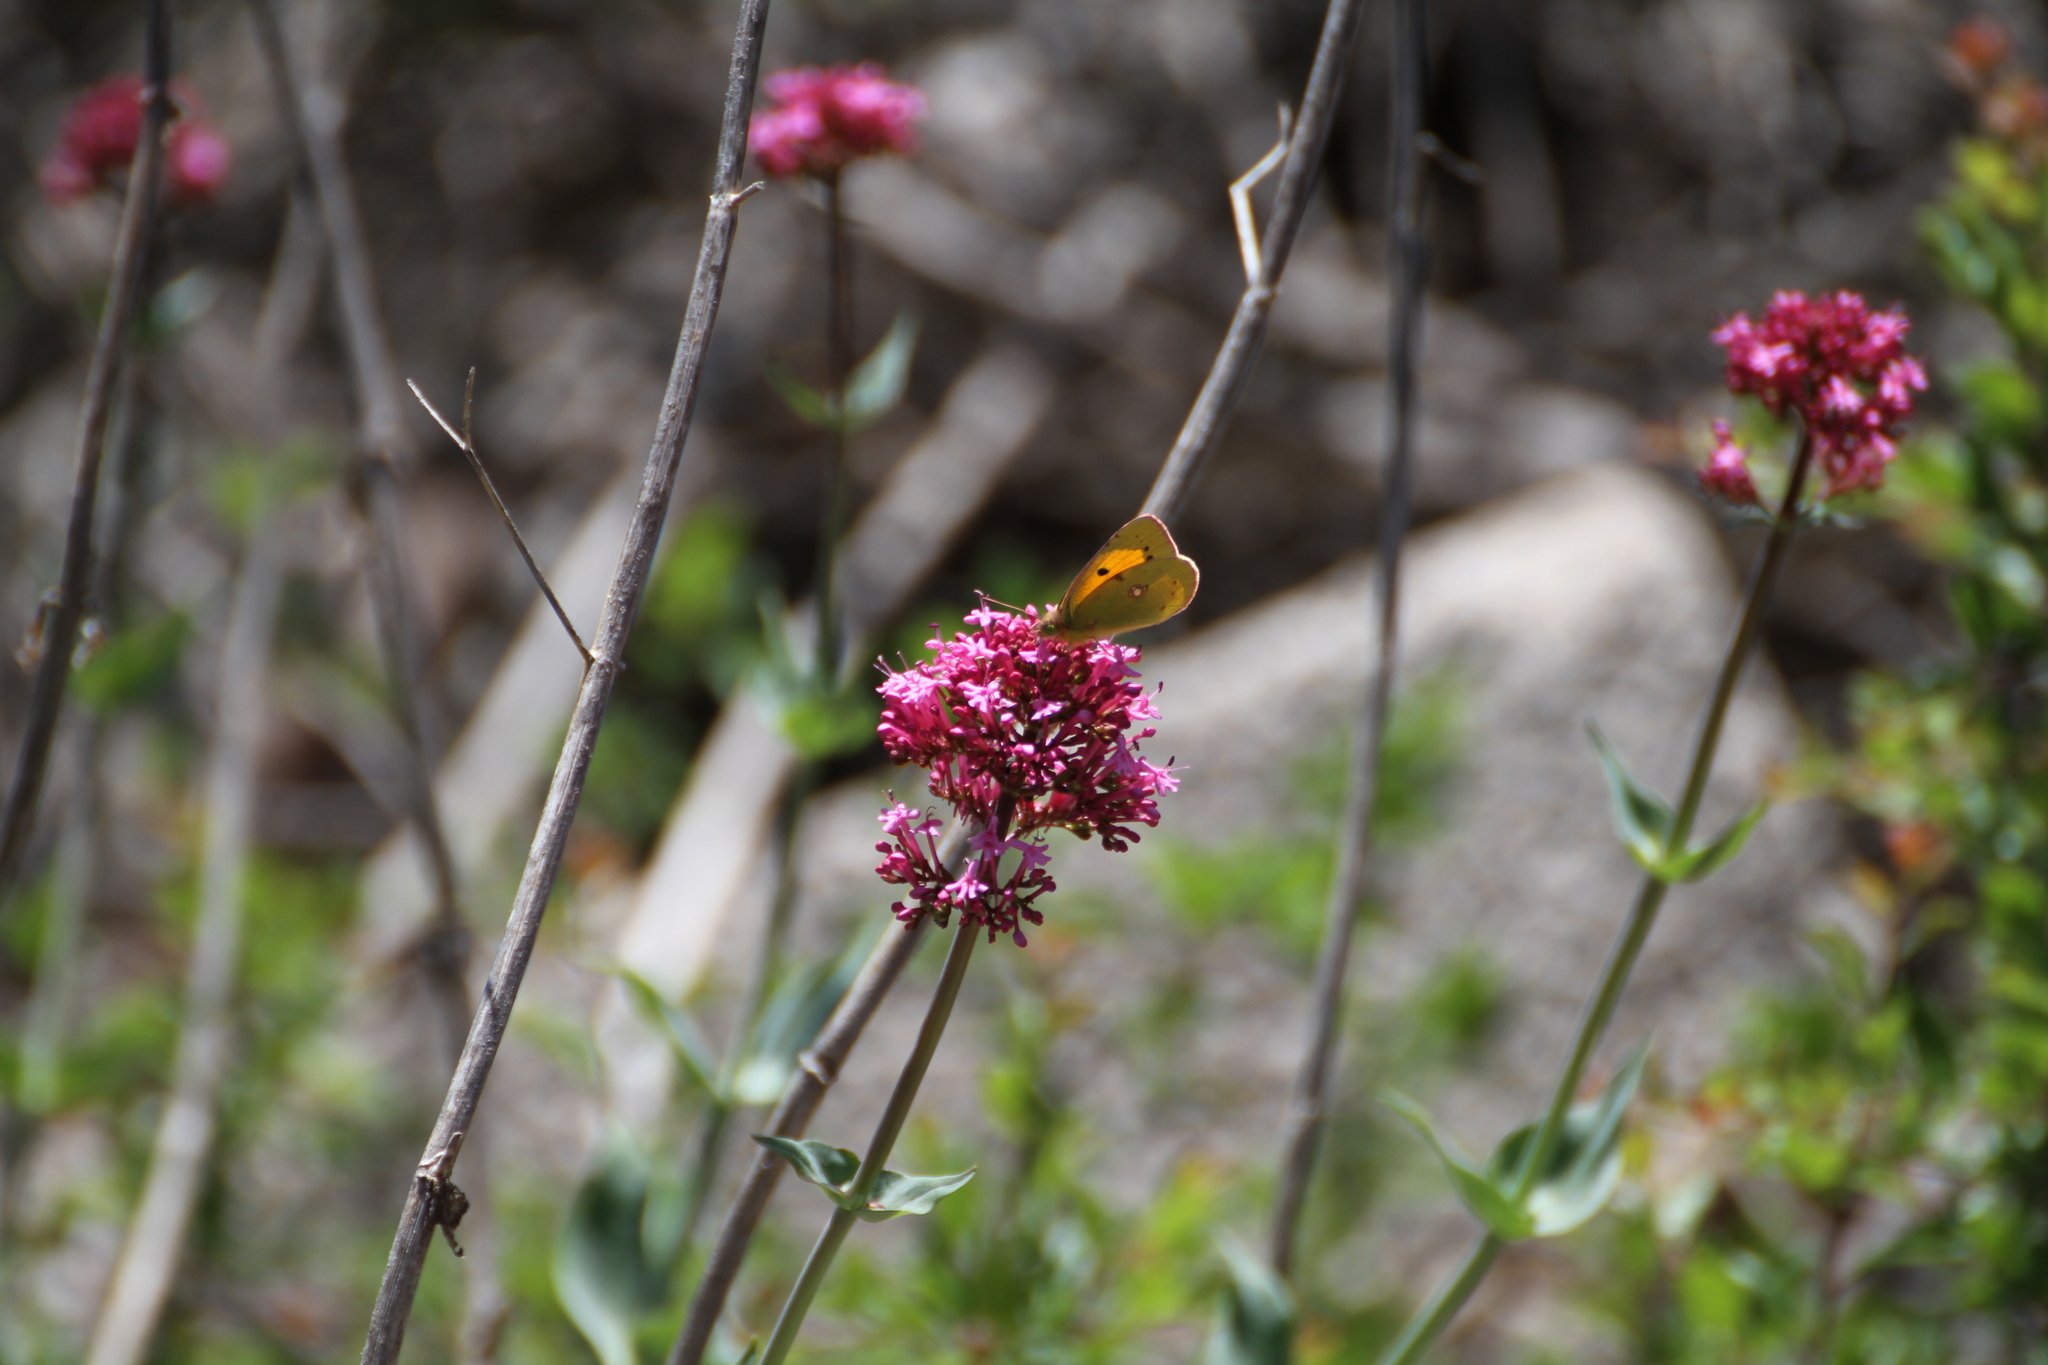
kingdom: Animalia
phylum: Arthropoda
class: Insecta
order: Lepidoptera
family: Pieridae
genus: Colias
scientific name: Colias croceus
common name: Clouded yellow
